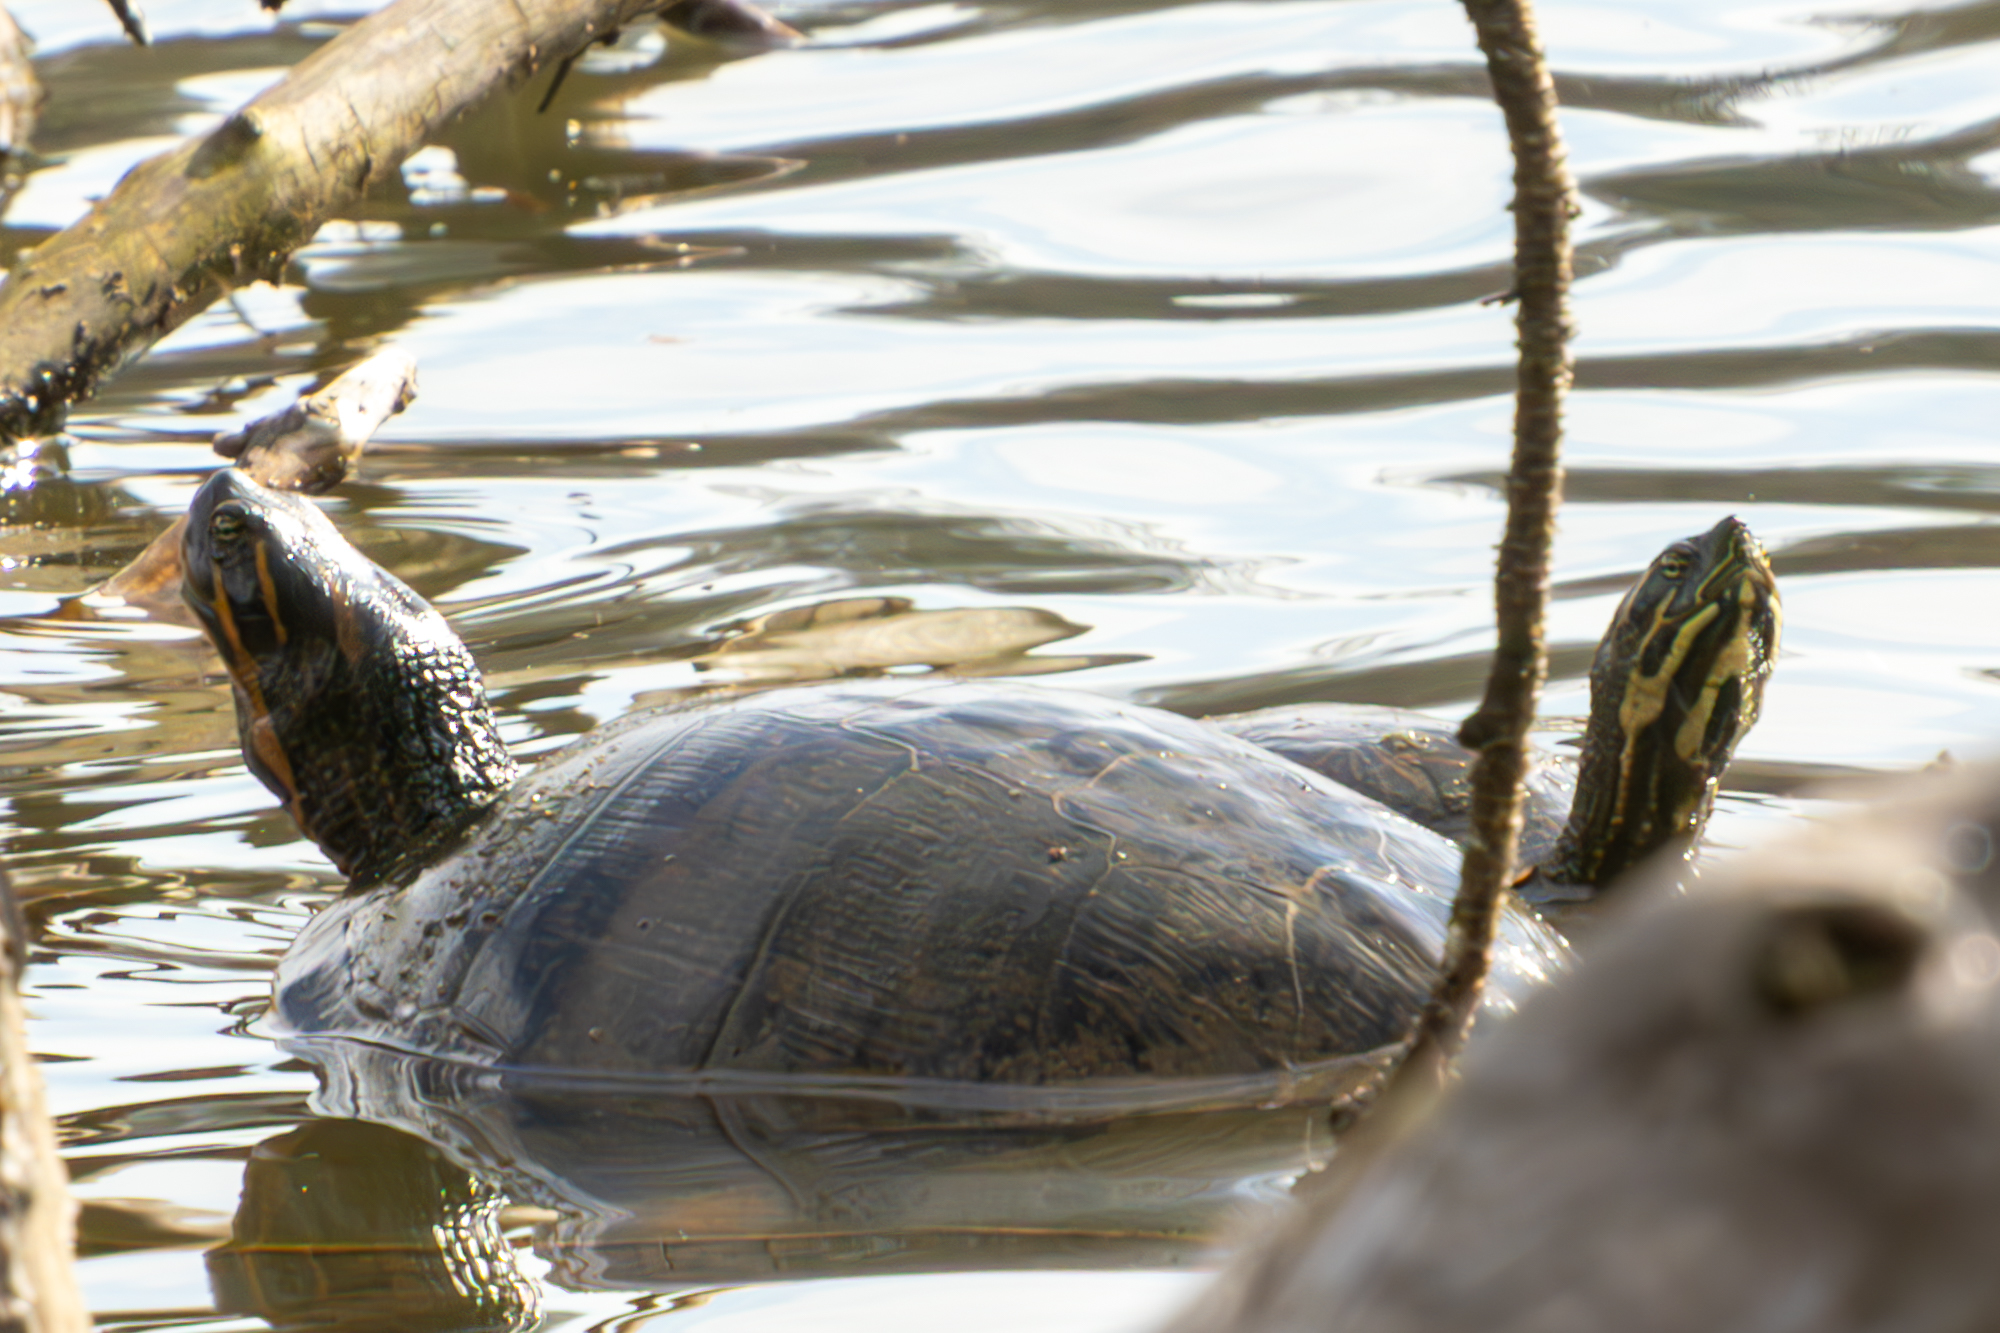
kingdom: Animalia
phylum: Chordata
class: Testudines
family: Emydidae
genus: Pseudemys
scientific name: Pseudemys concinna
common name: Eastern river cooter
